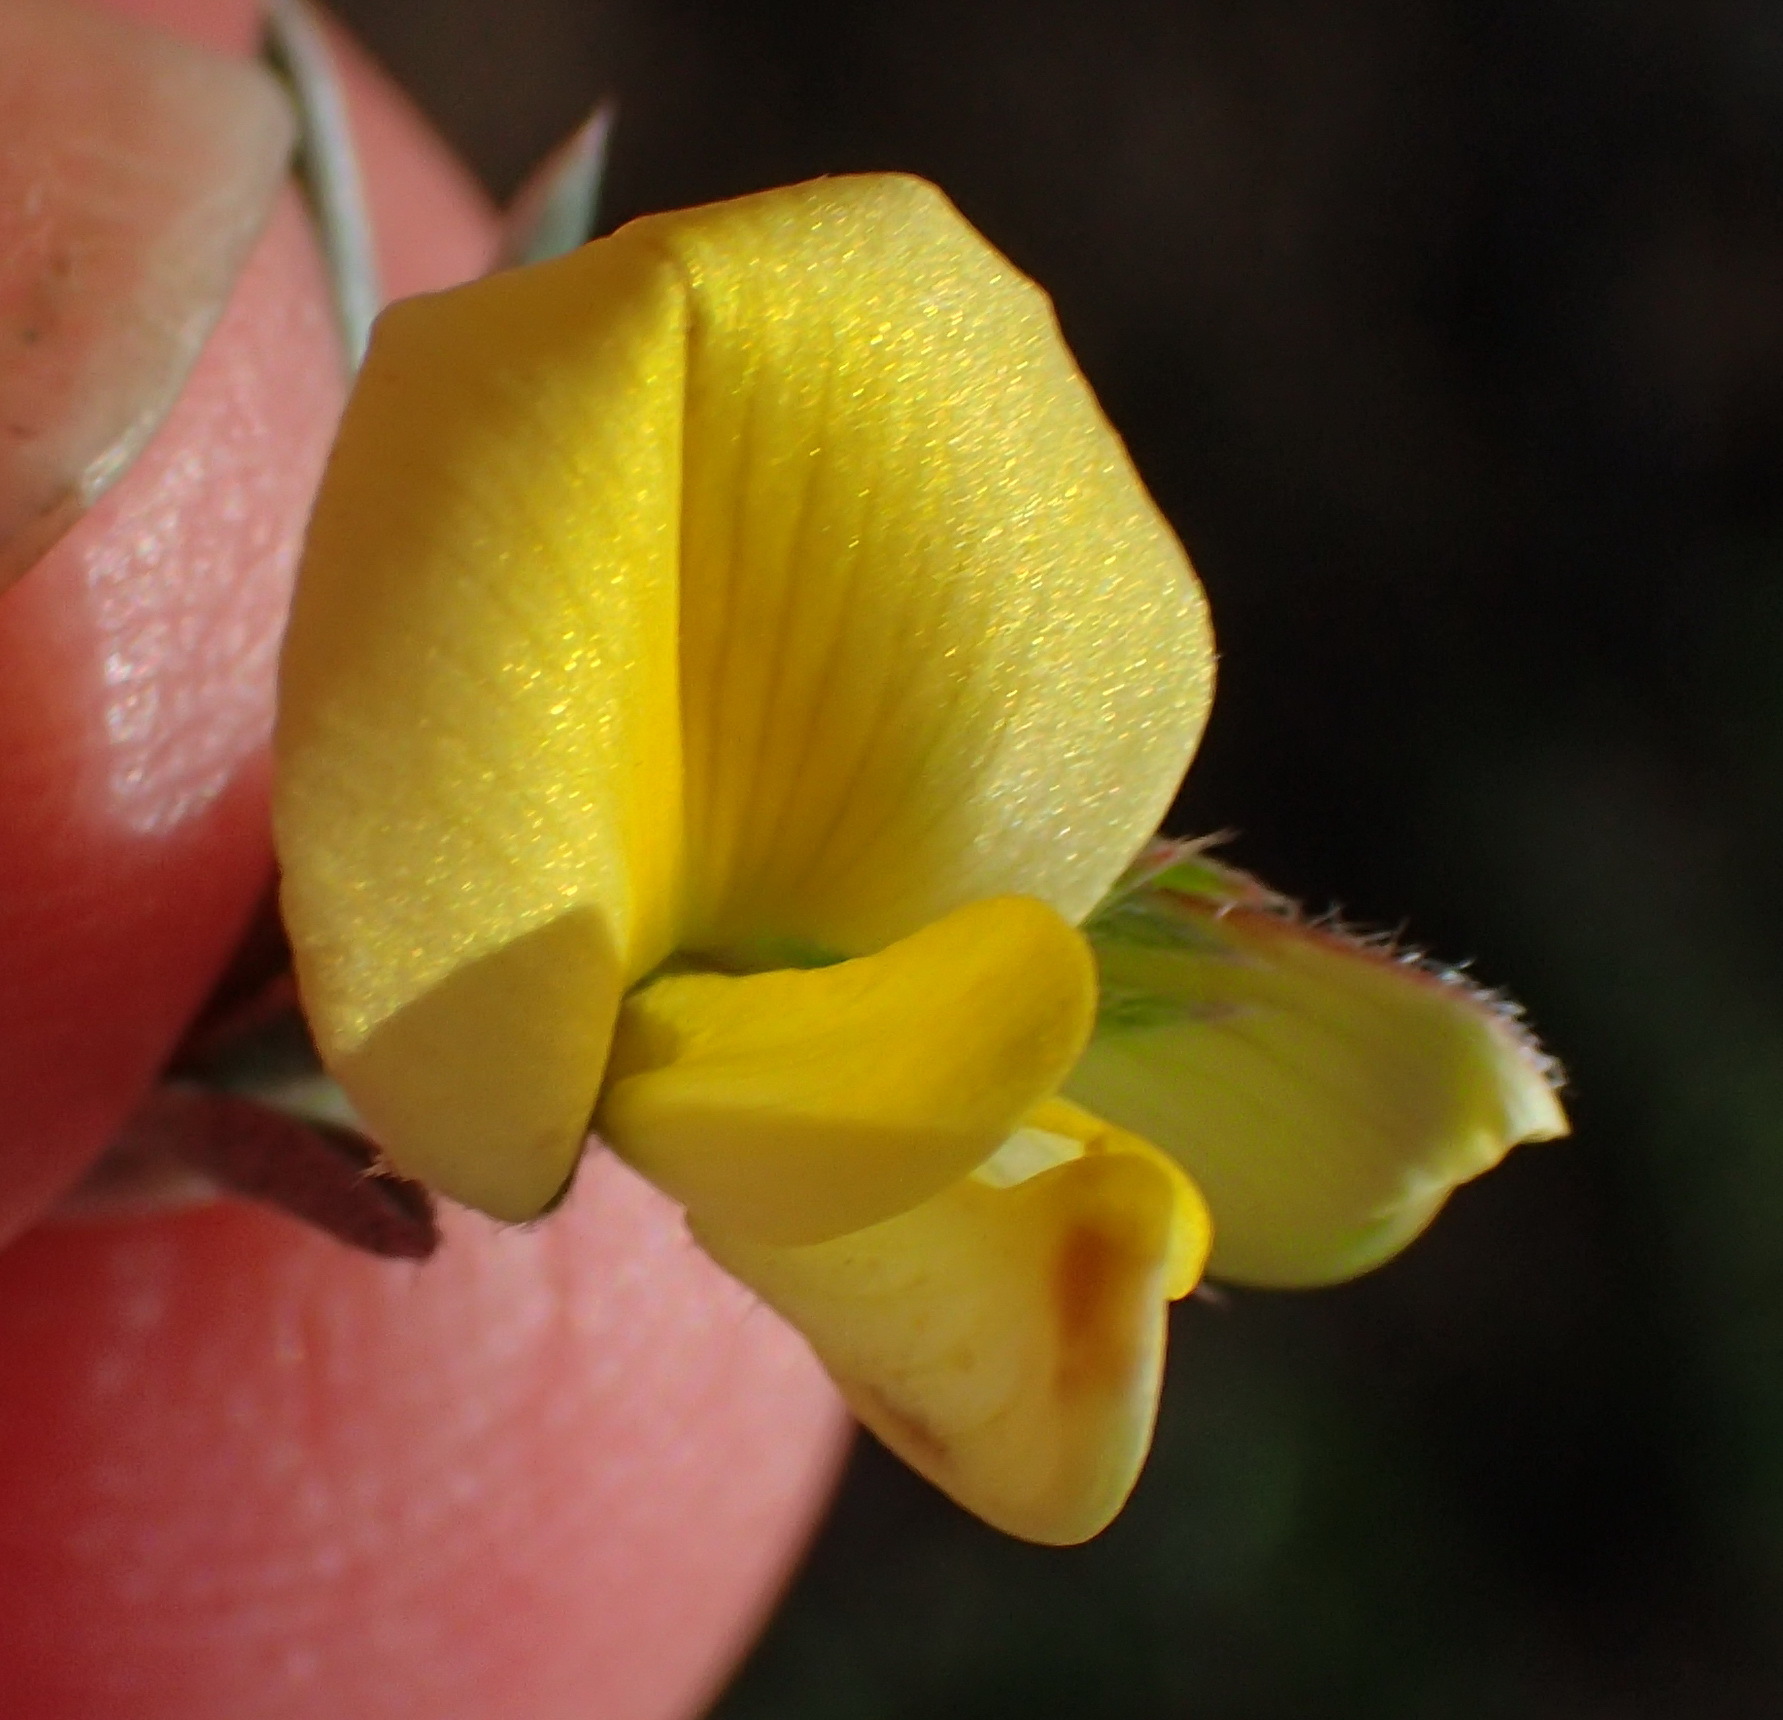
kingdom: Plantae
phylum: Tracheophyta
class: Magnoliopsida
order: Fabales
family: Fabaceae
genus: Lotononis
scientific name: Lotononis pungens
